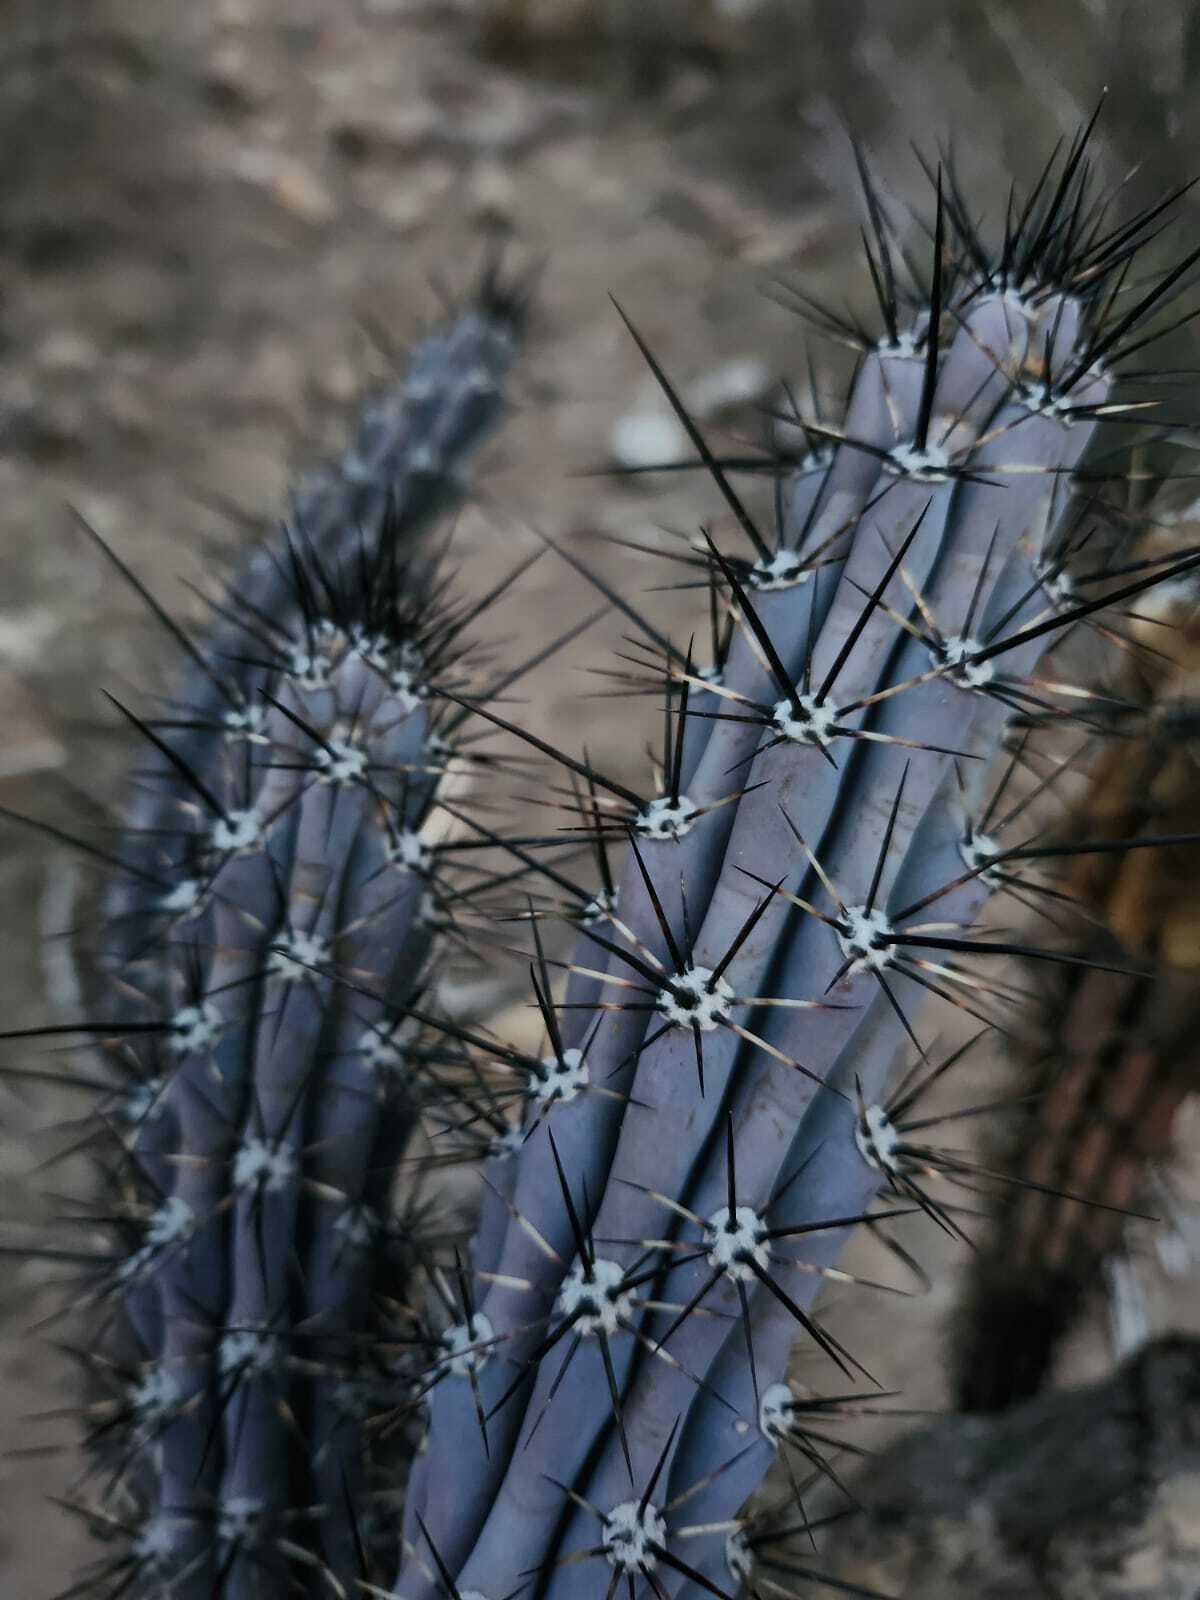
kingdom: Plantae
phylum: Tracheophyta
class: Magnoliopsida
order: Caryophyllales
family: Cactaceae
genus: Cereus
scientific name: Cereus aethiops
